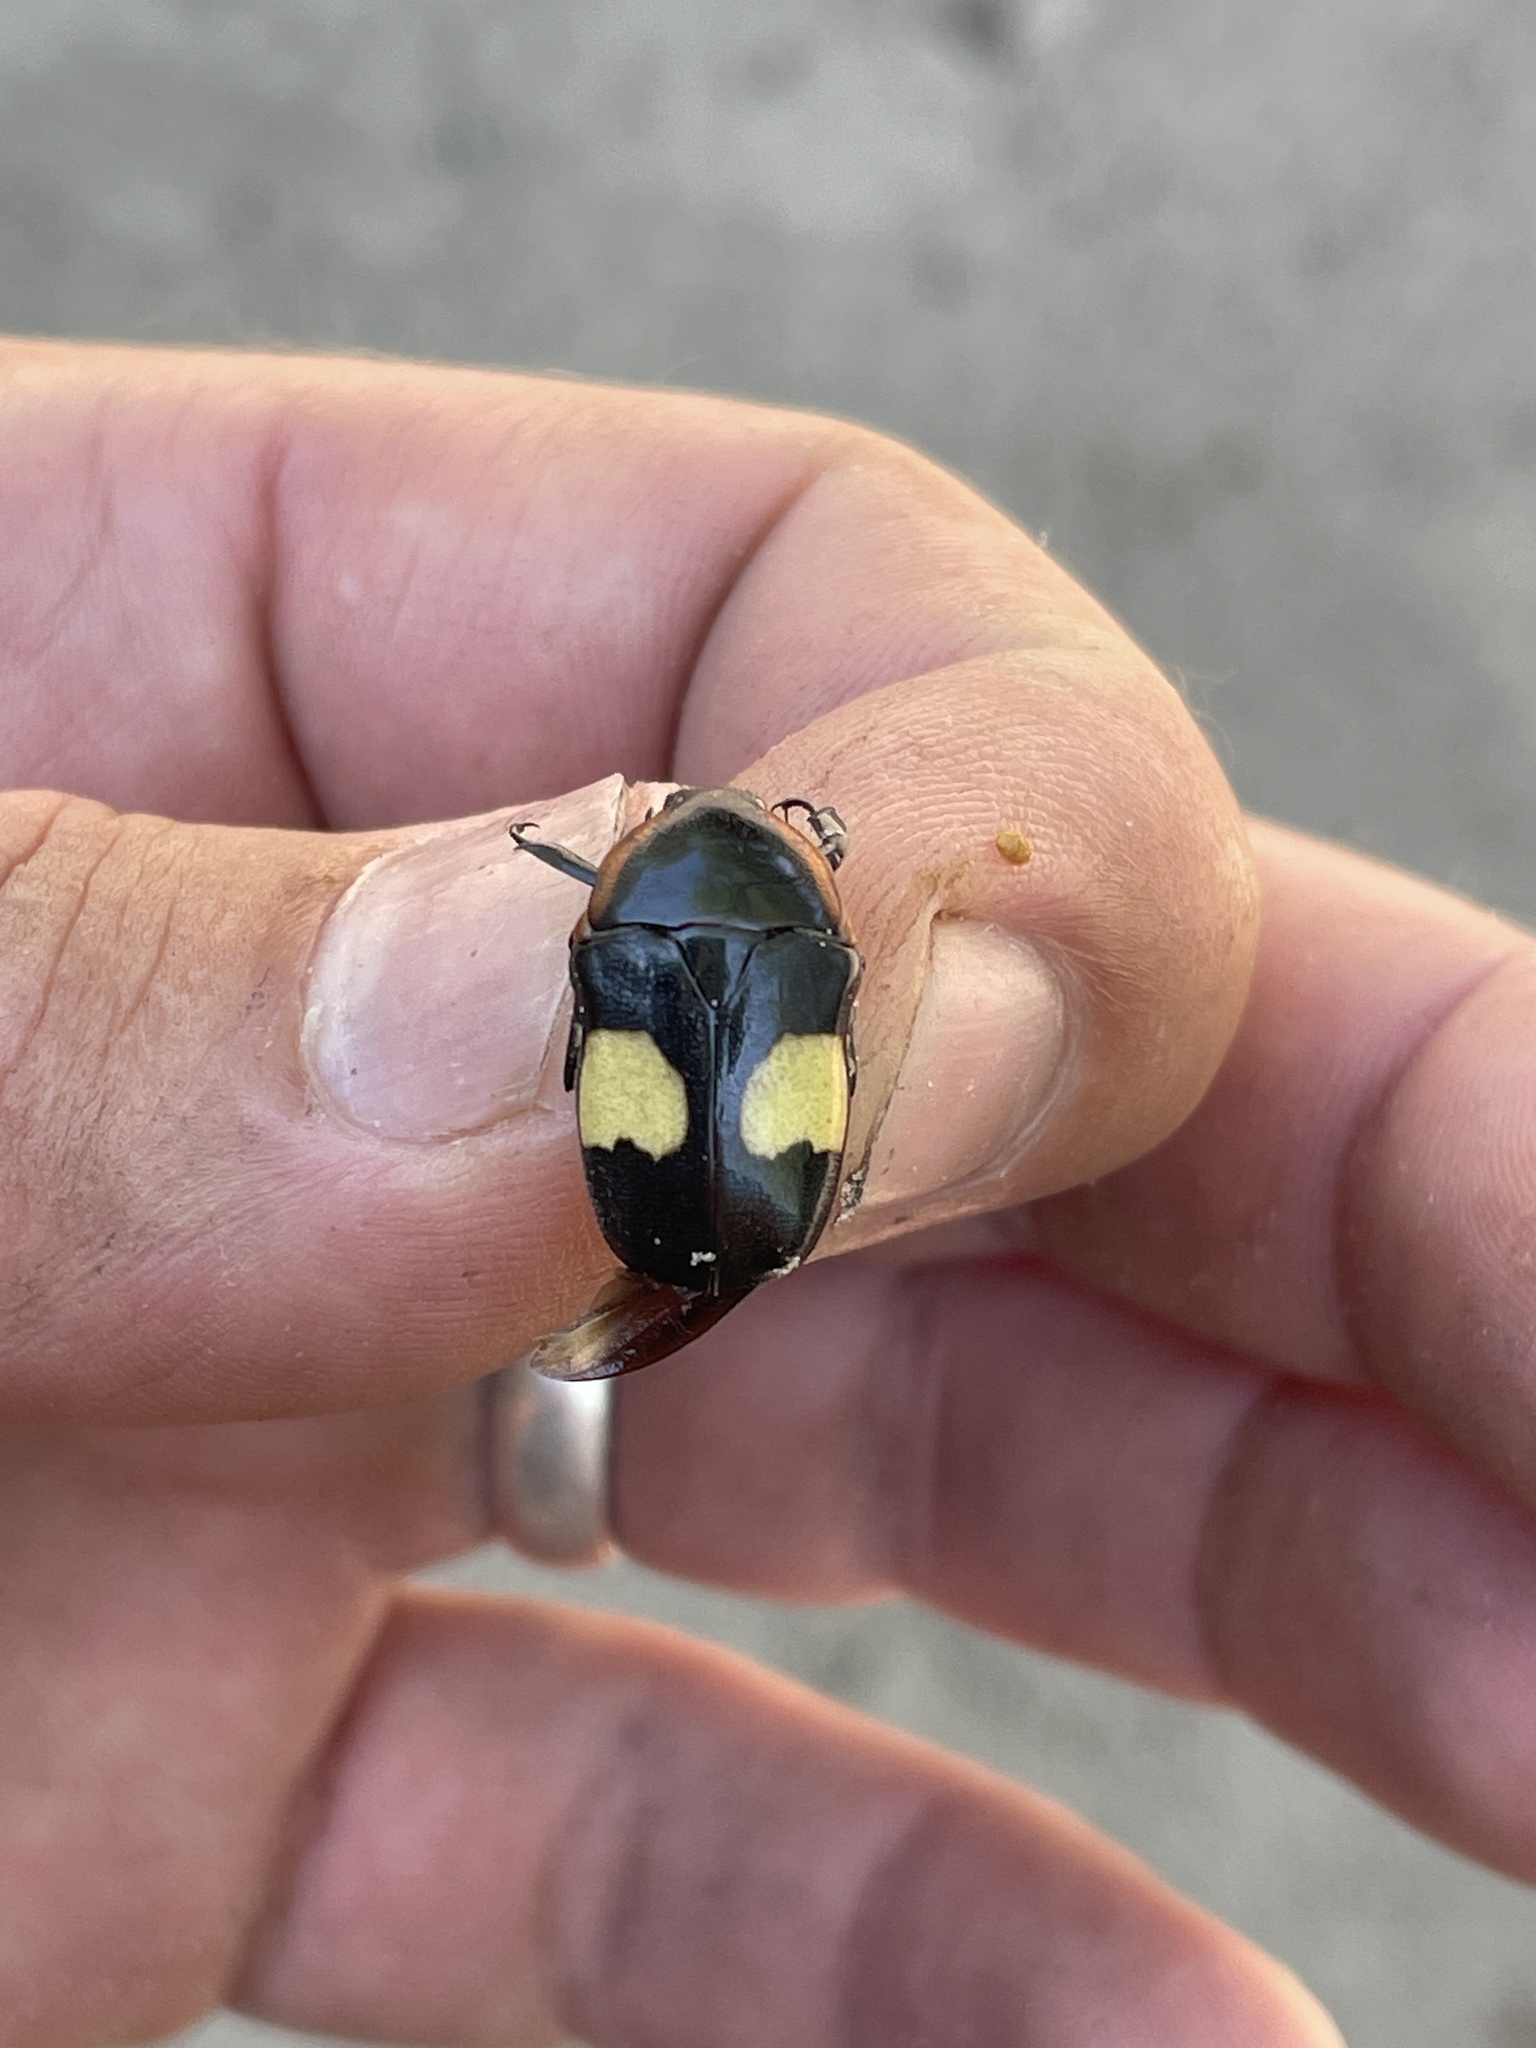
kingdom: Animalia
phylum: Arthropoda
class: Insecta
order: Coleoptera
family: Scarabaeidae
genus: Pedinorrhina
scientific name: Pedinorrhina
